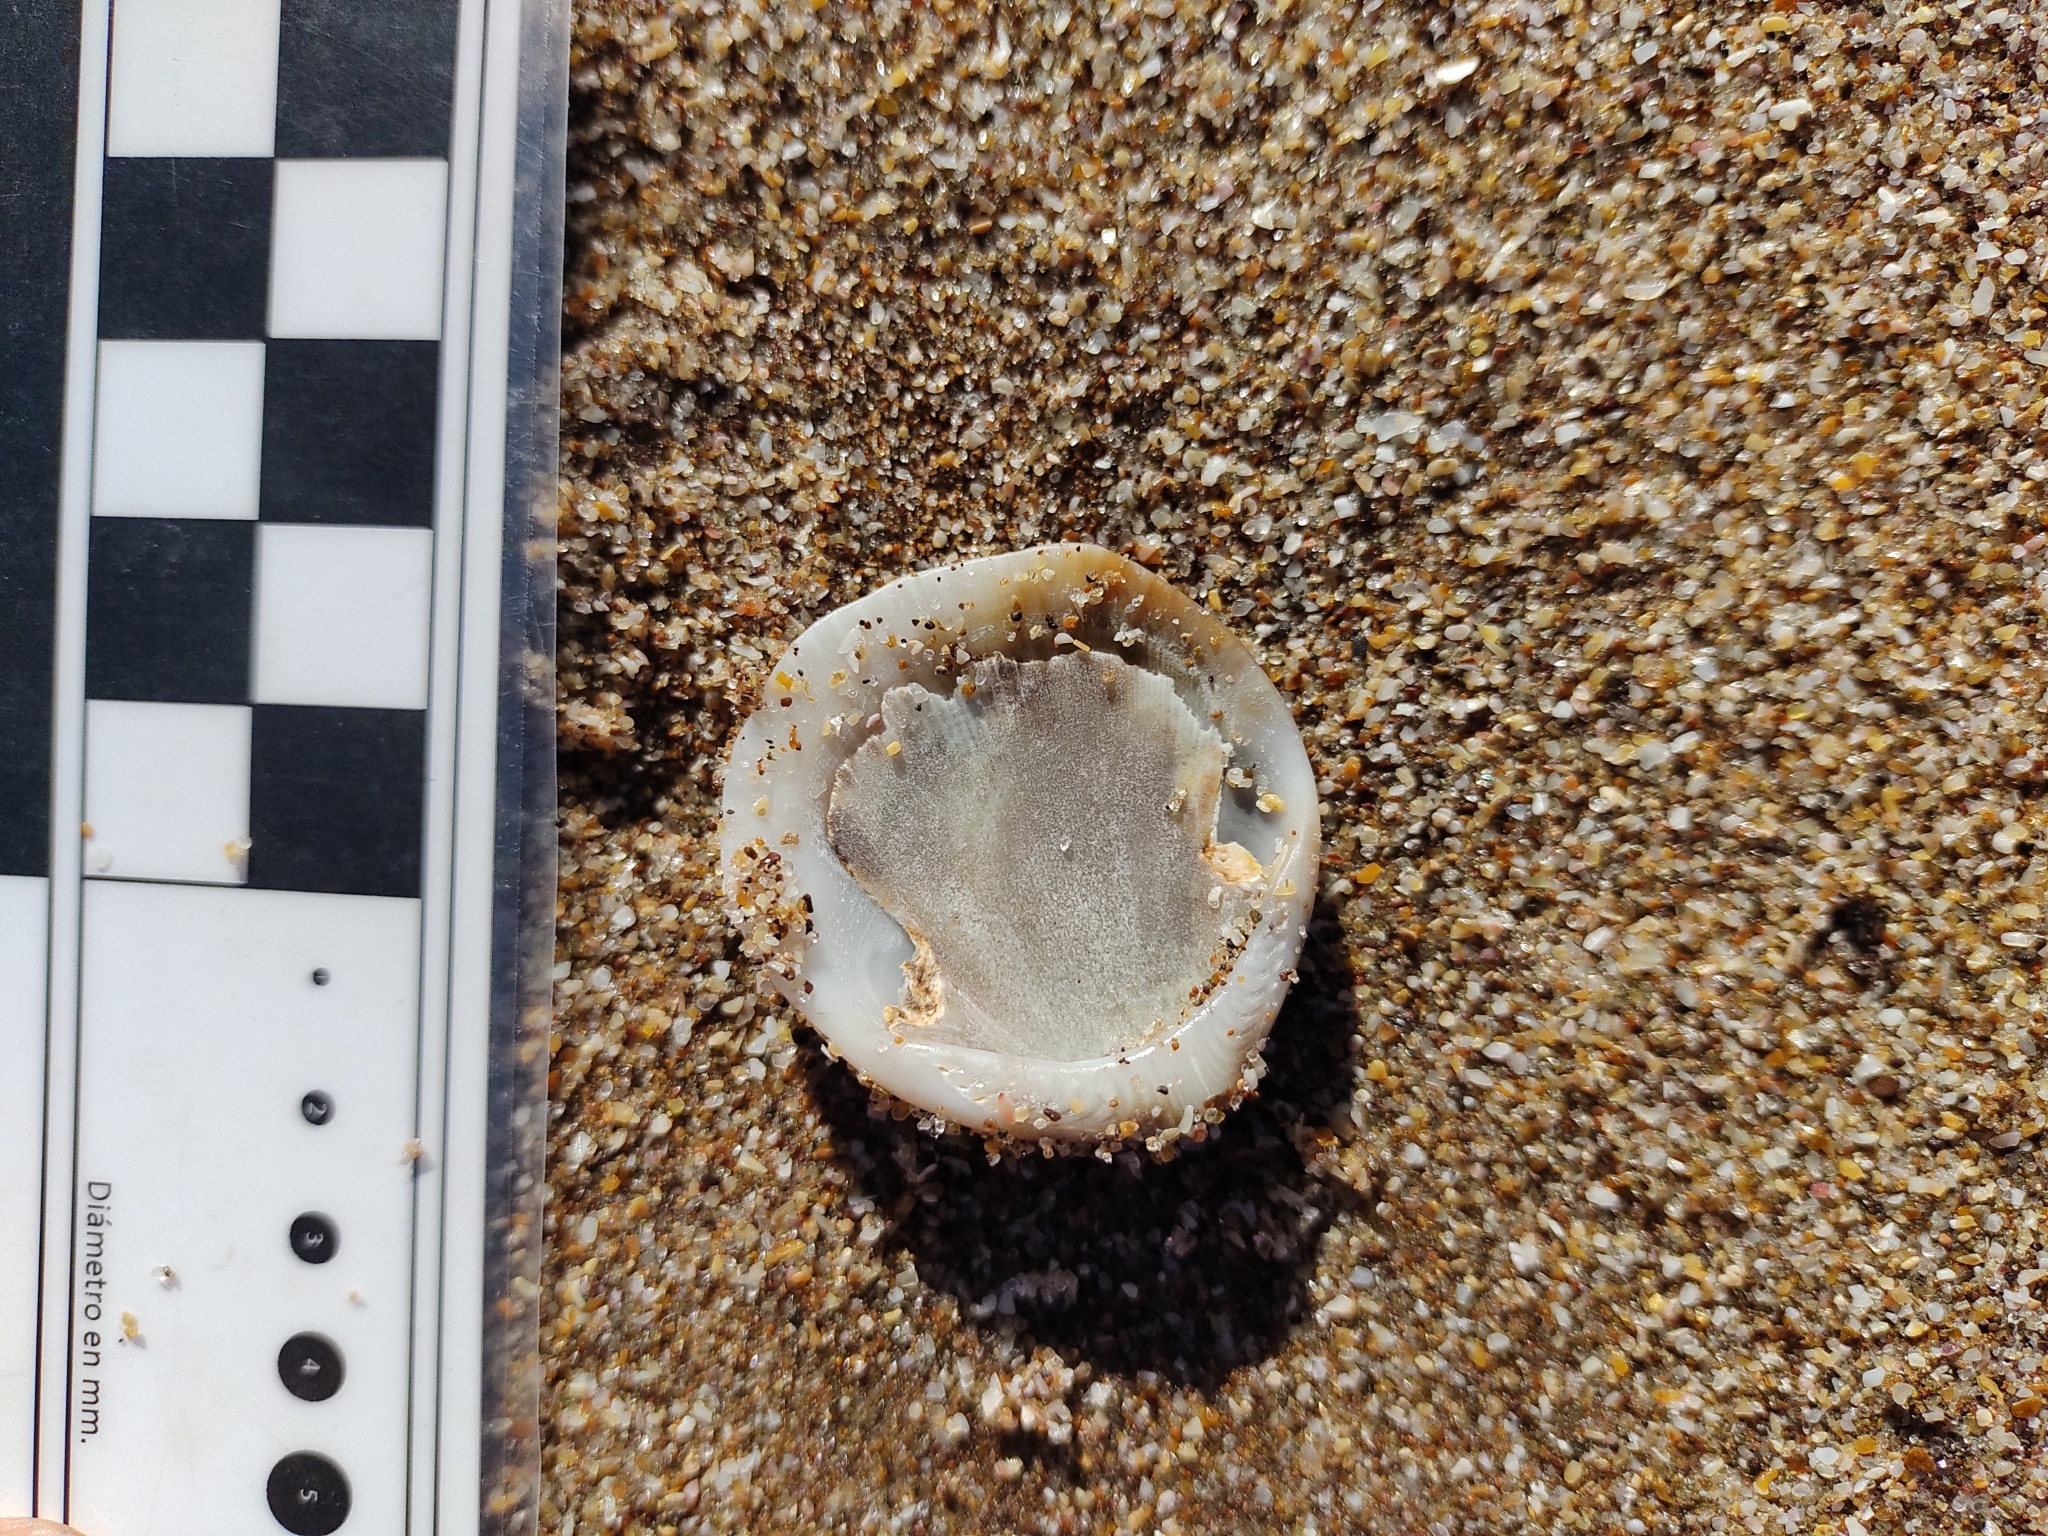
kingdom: Animalia
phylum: Mollusca
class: Bivalvia
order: Arcida
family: Glycymerididae
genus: Glycymeris
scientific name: Glycymeris longior
